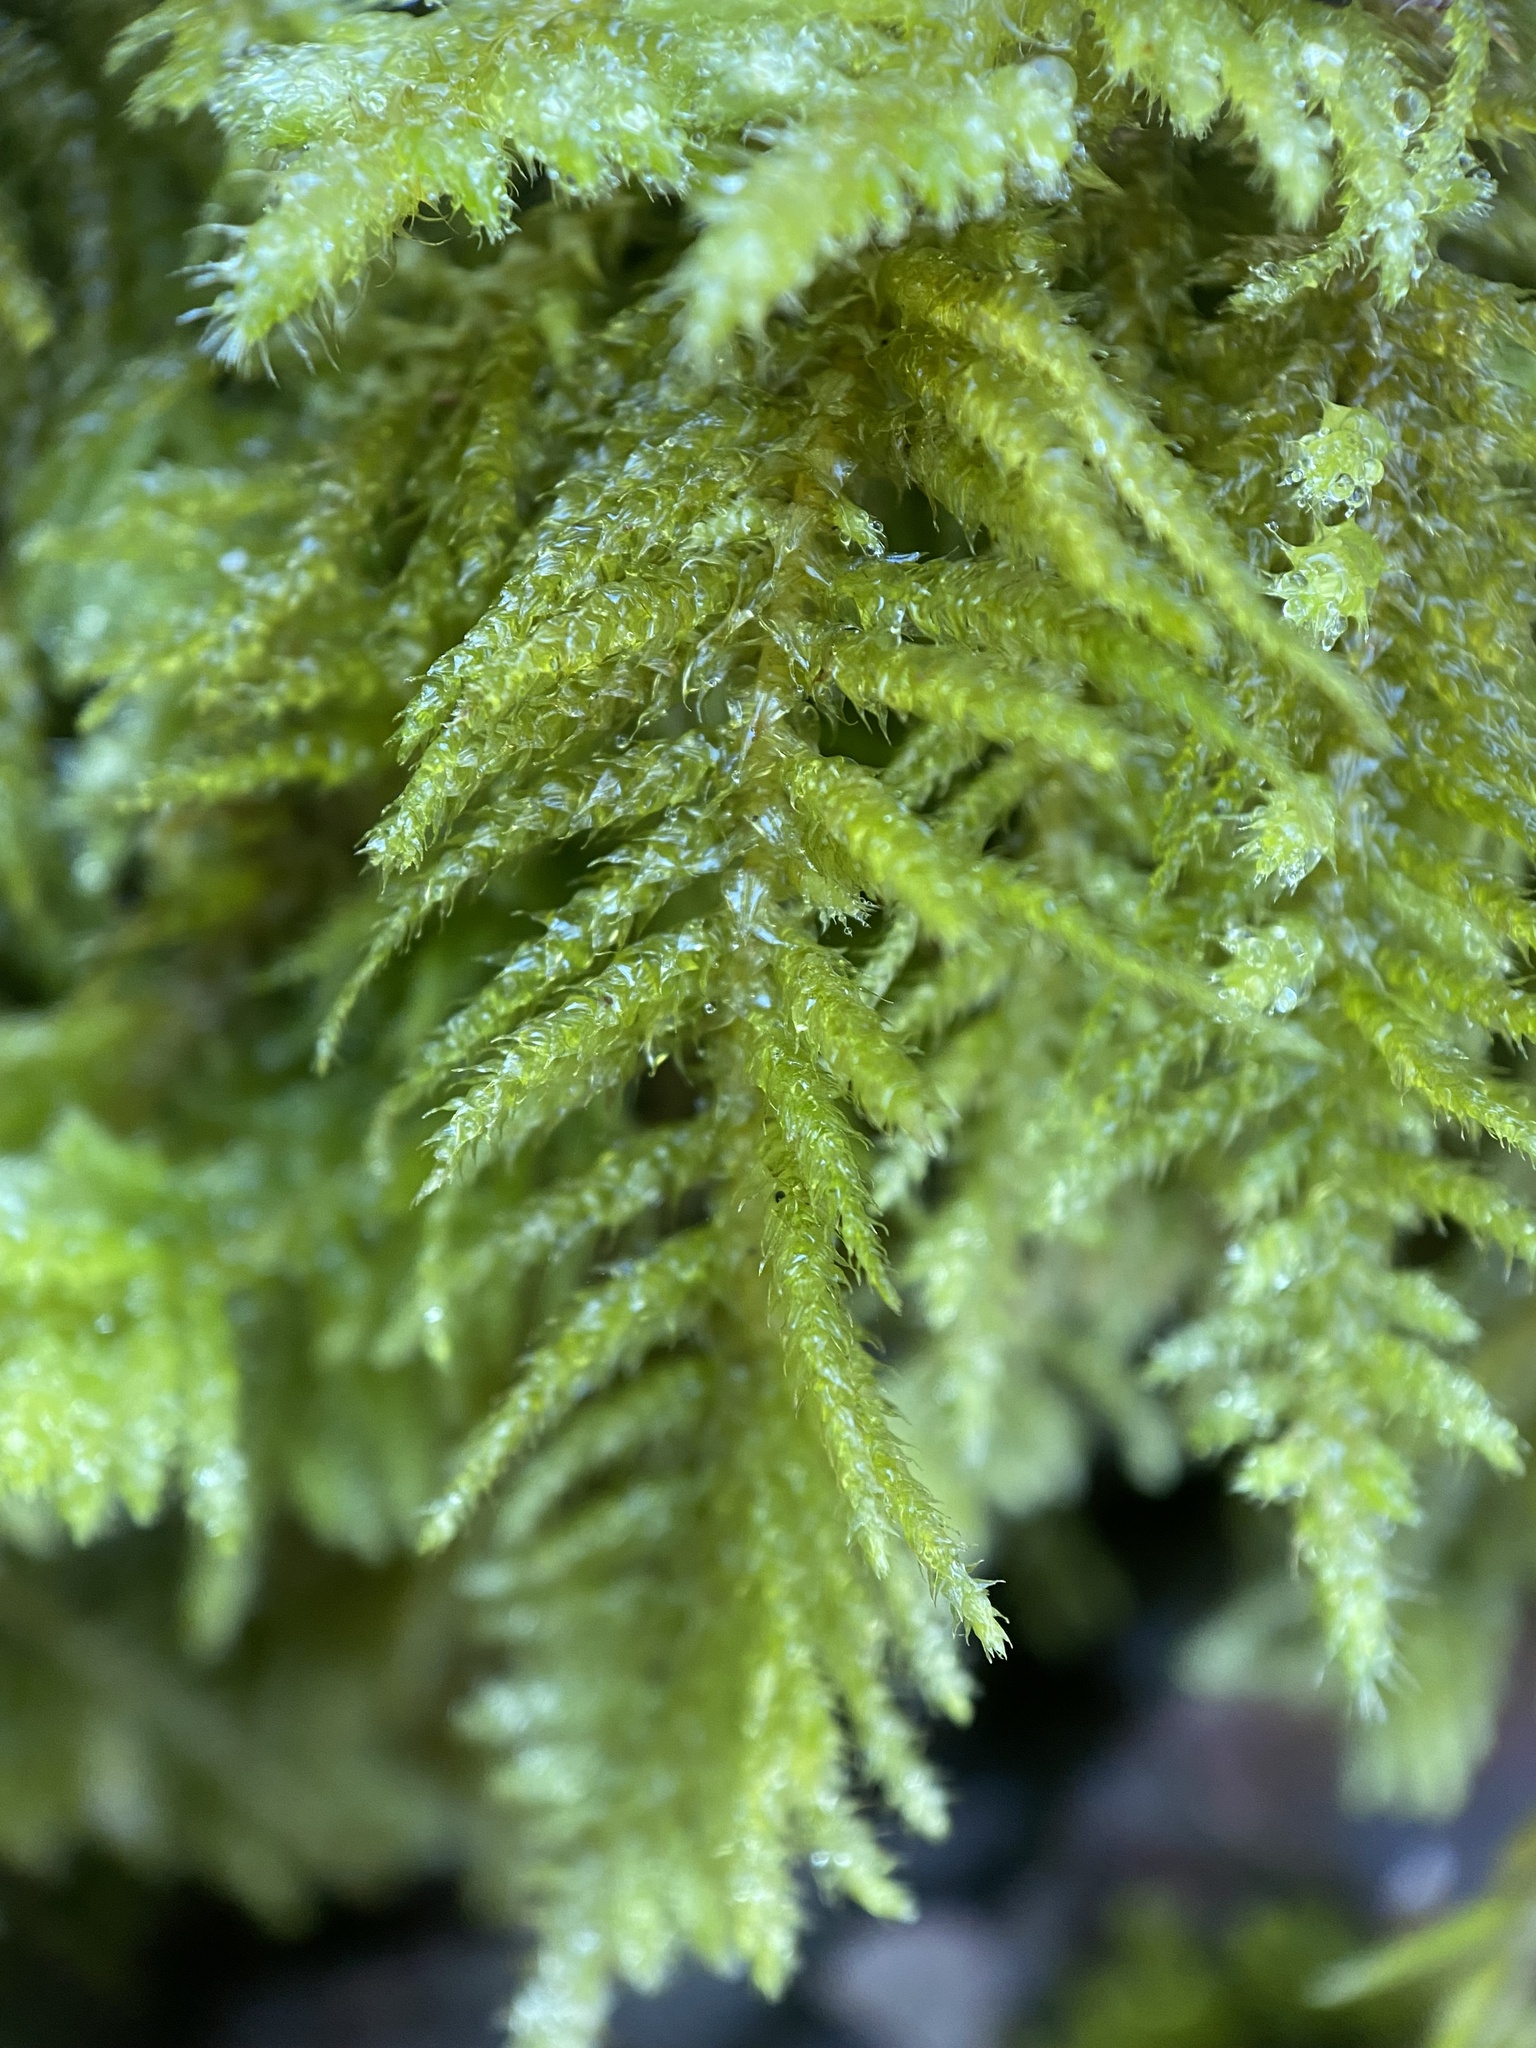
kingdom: Plantae
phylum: Bryophyta
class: Bryopsida
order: Hypnales
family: Brachytheciaceae
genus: Kindbergia
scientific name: Kindbergia oregana
